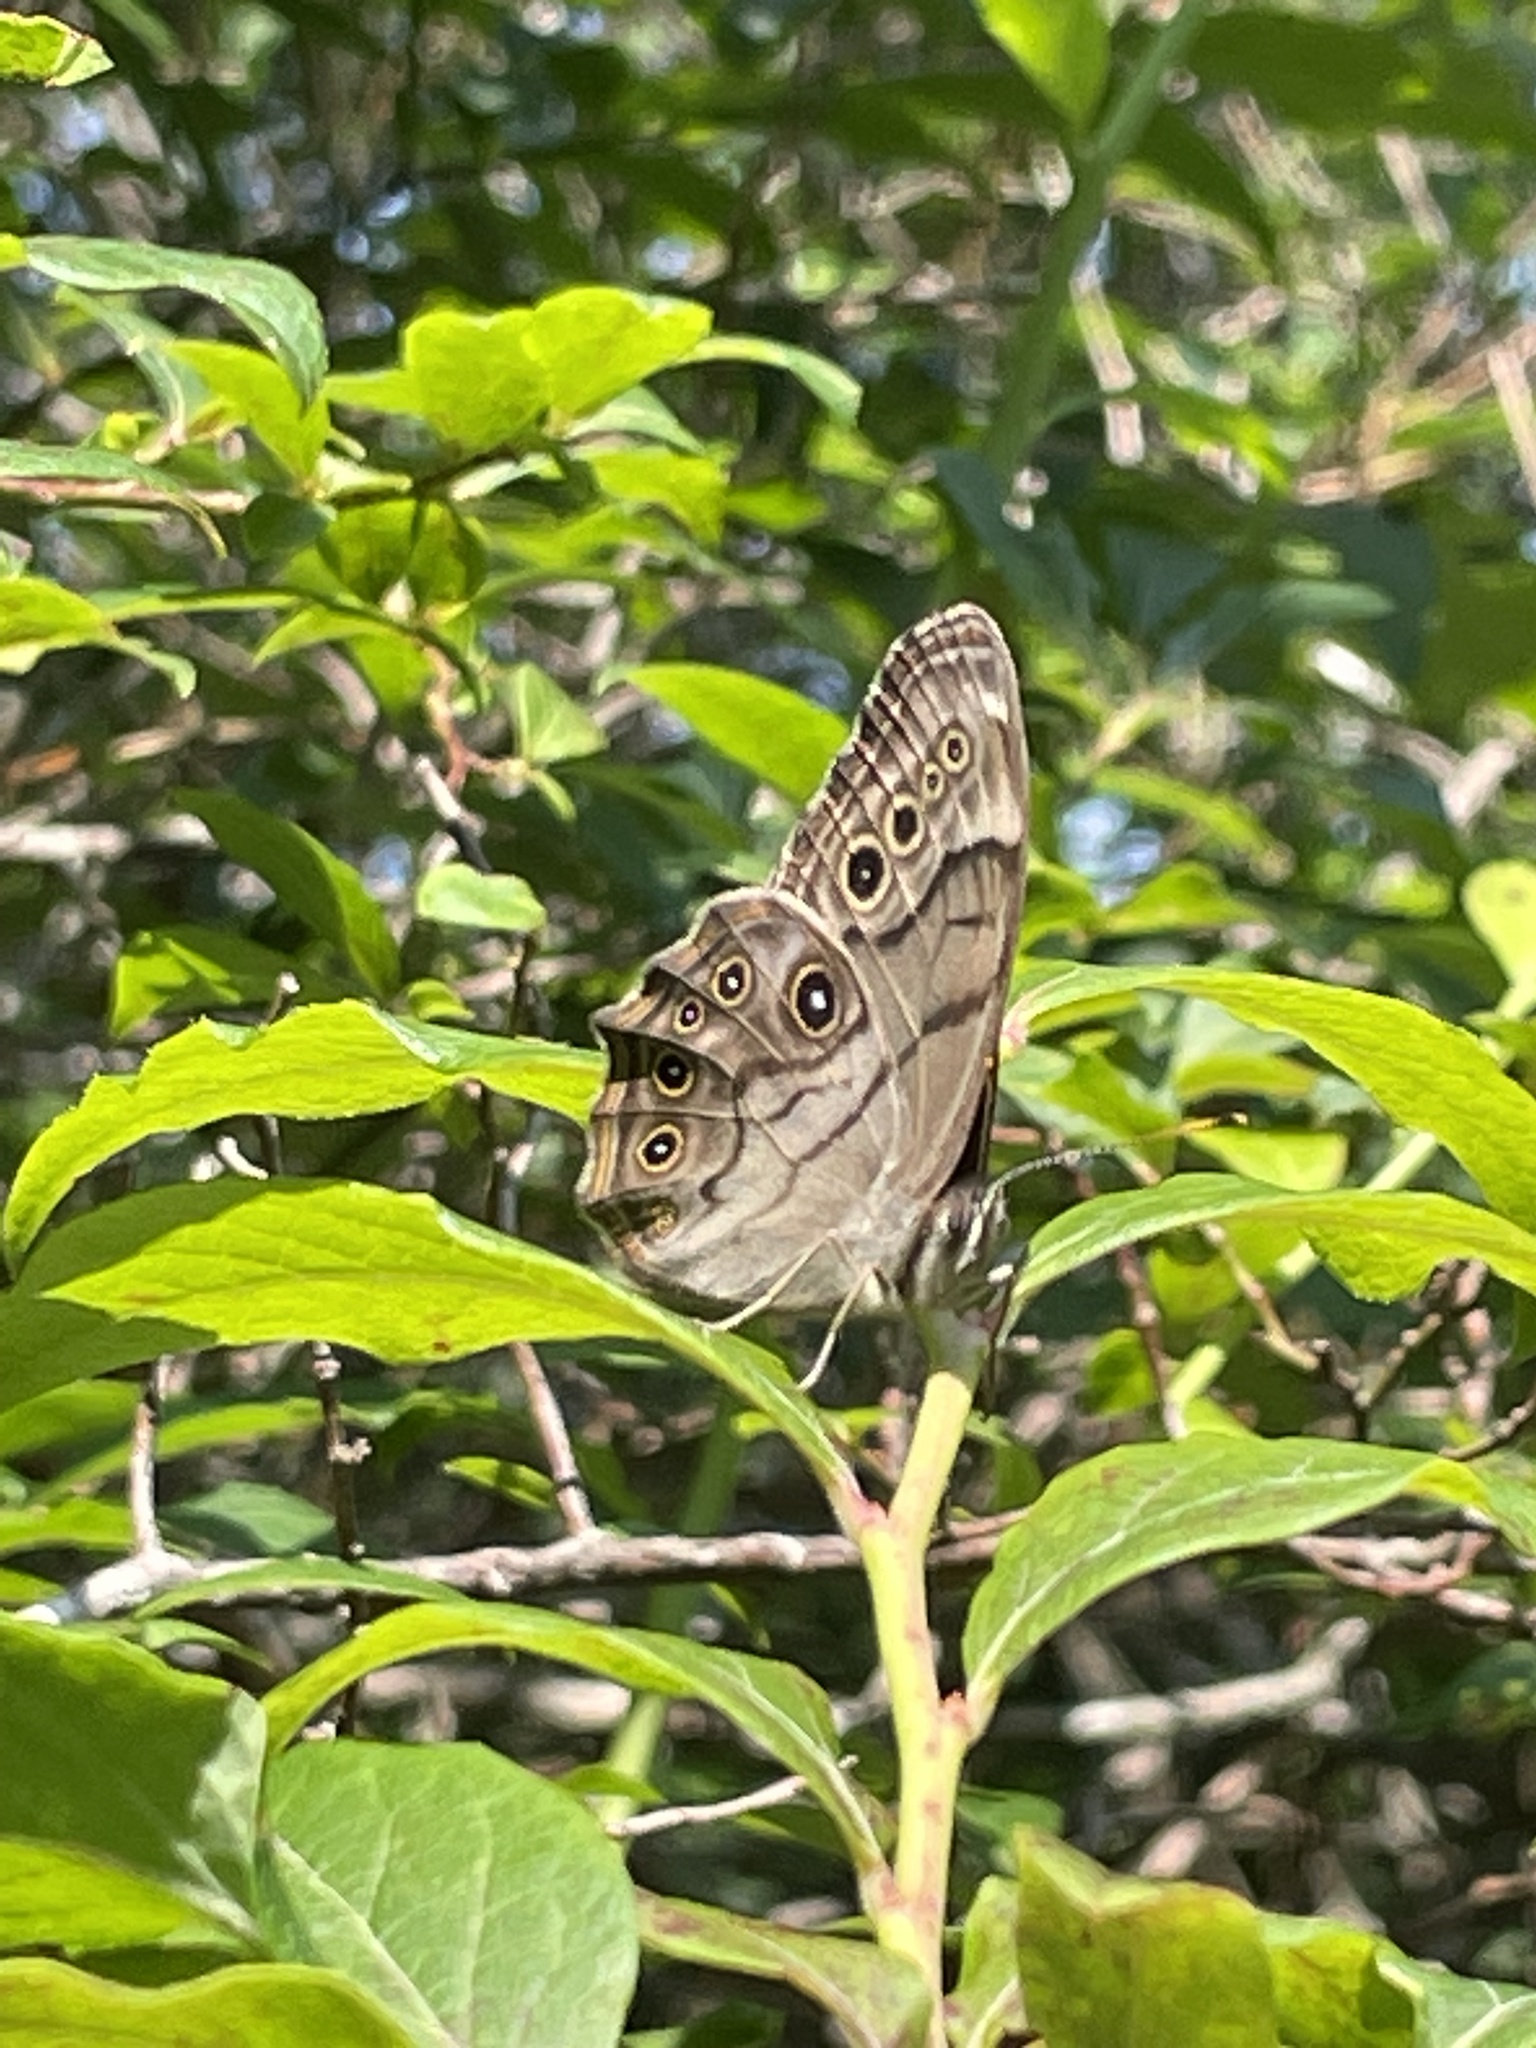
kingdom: Animalia
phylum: Arthropoda
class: Insecta
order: Lepidoptera
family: Nymphalidae
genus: Lethe
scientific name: Lethe anthedon
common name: Northern pearly-eye
